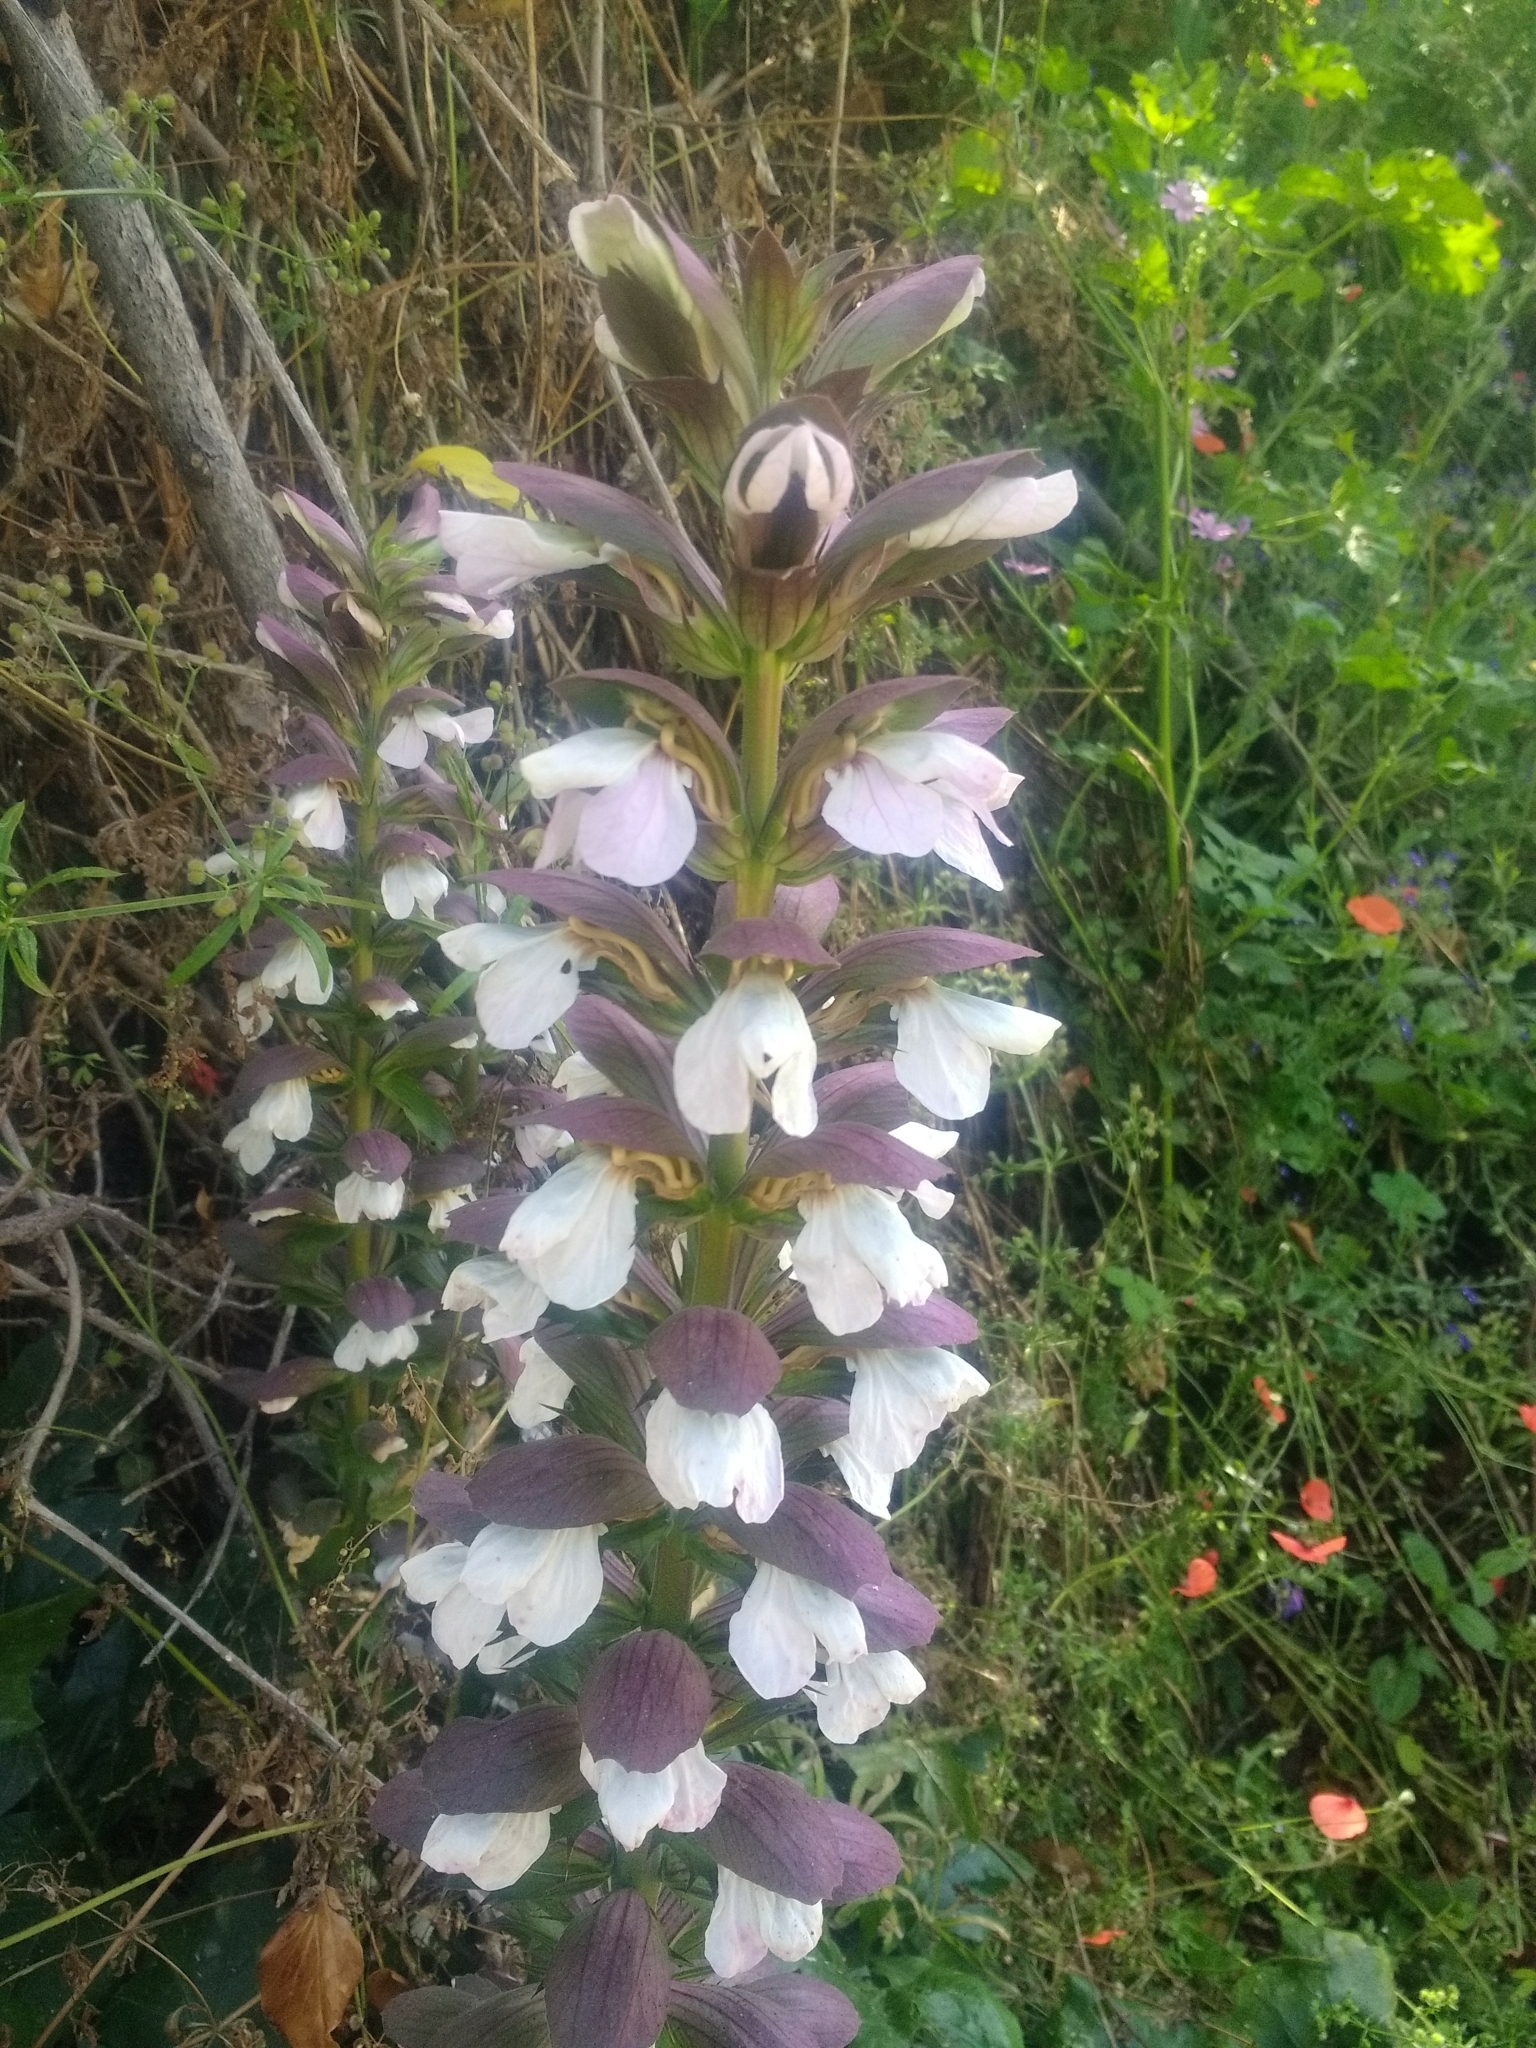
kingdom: Plantae
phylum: Tracheophyta
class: Magnoliopsida
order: Lamiales
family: Acanthaceae
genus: Acanthus
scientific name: Acanthus mollis
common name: Bear's-breech
